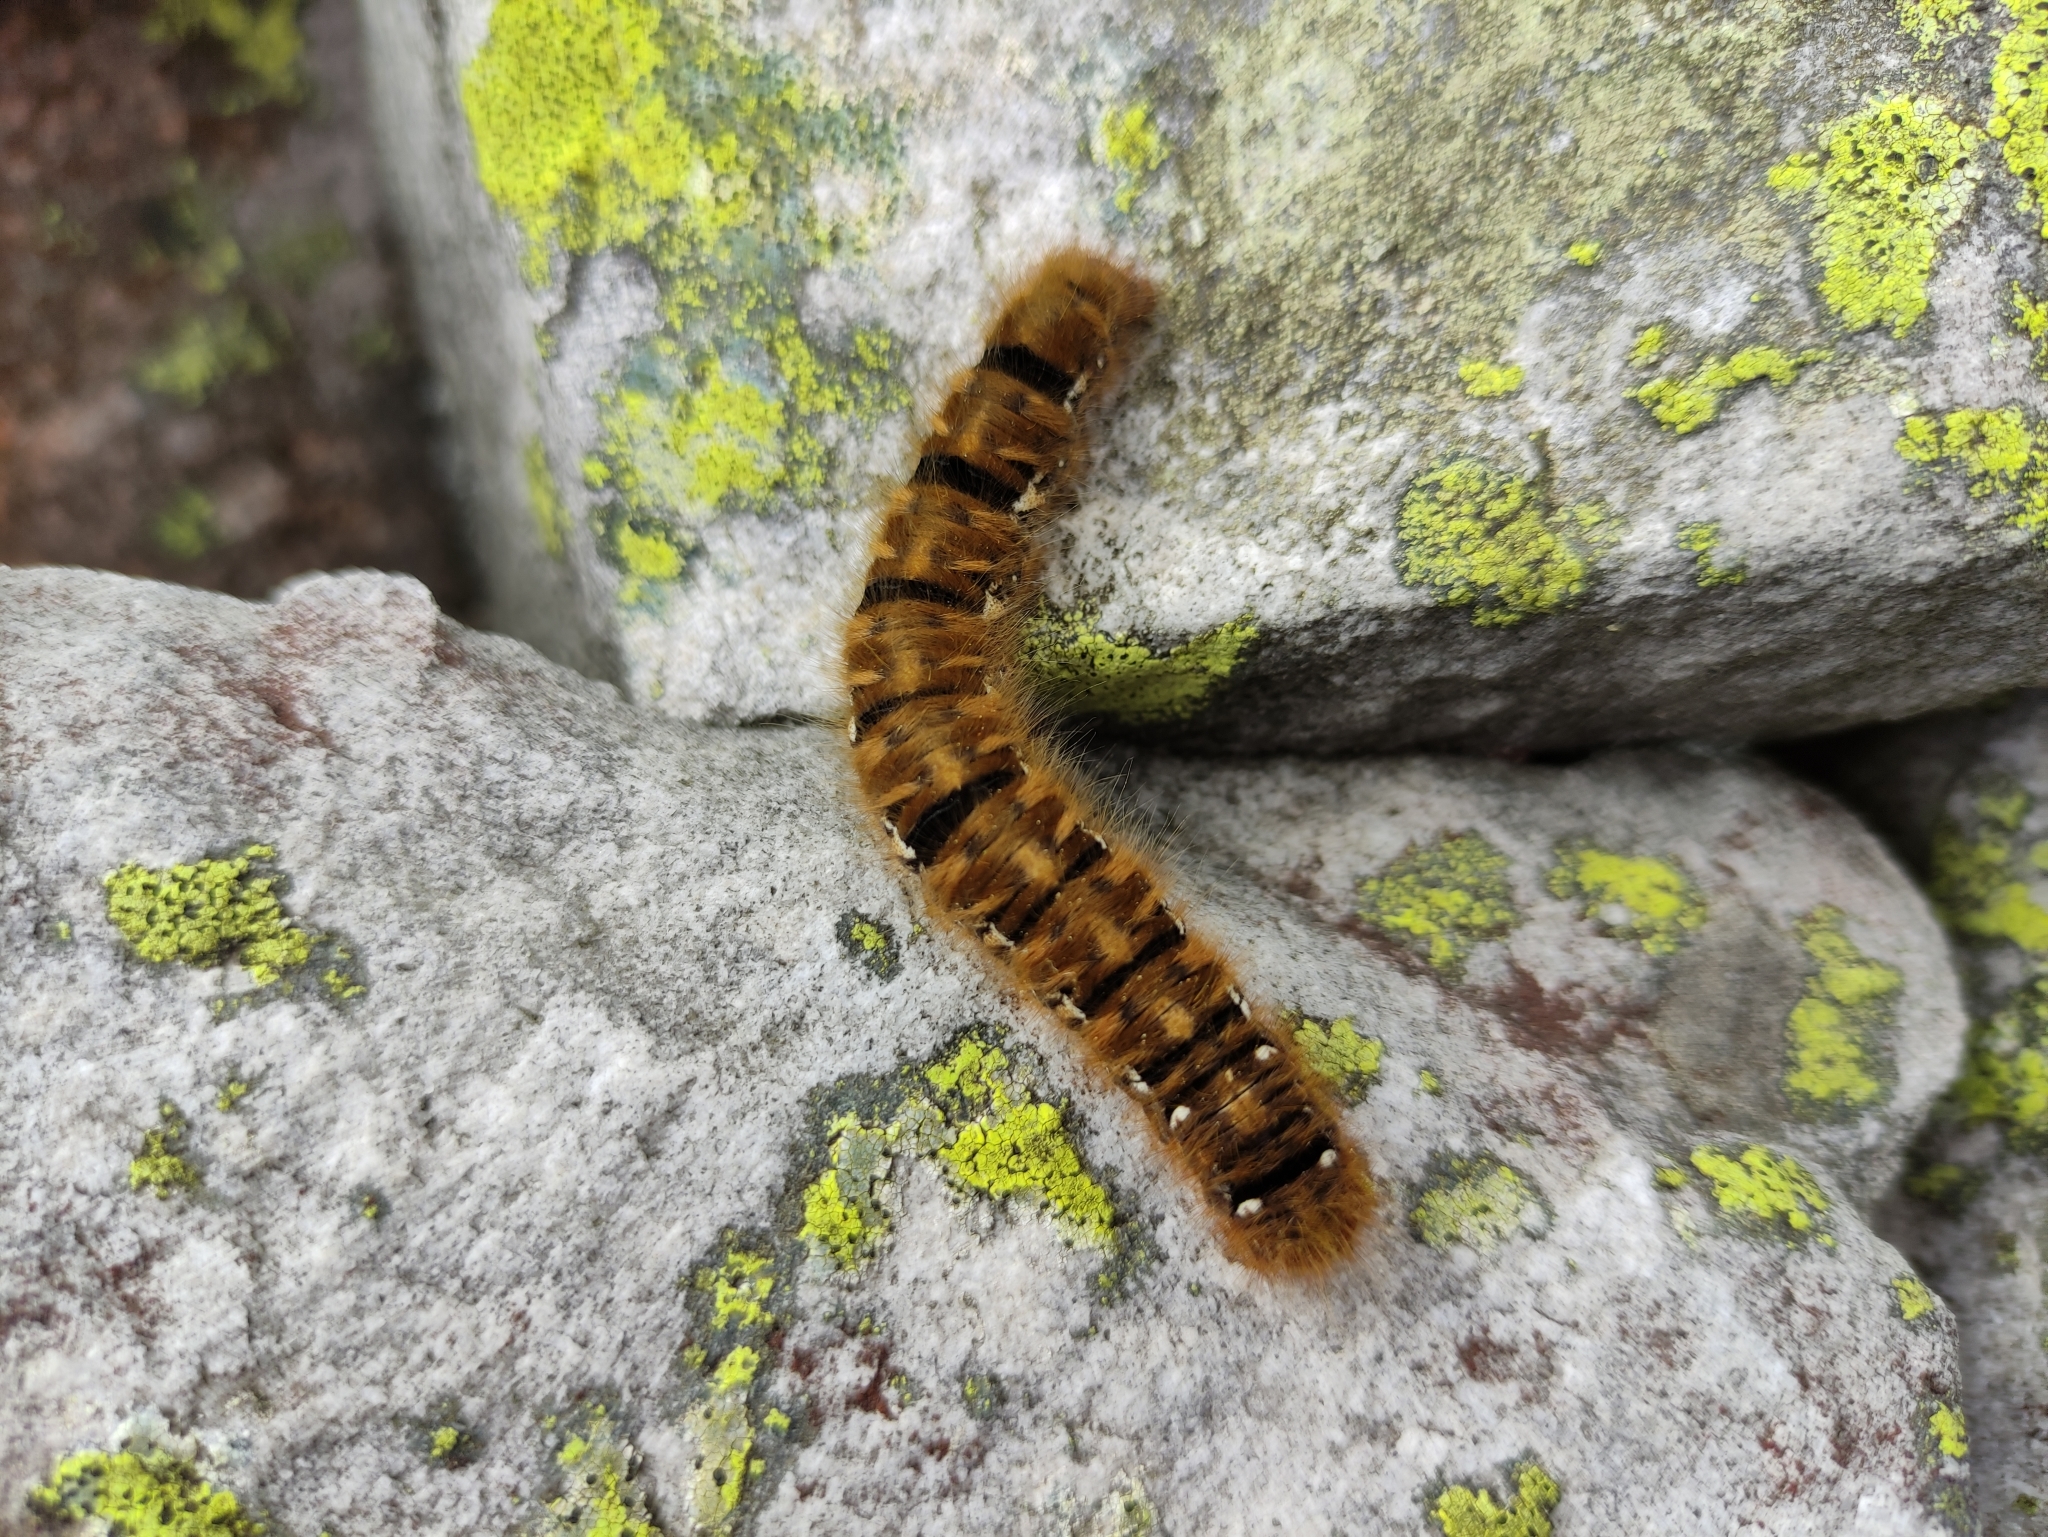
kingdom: Animalia
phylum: Arthropoda
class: Insecta
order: Lepidoptera
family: Lasiocampidae
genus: Lasiocampa
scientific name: Lasiocampa quercus
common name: Oak eggar
